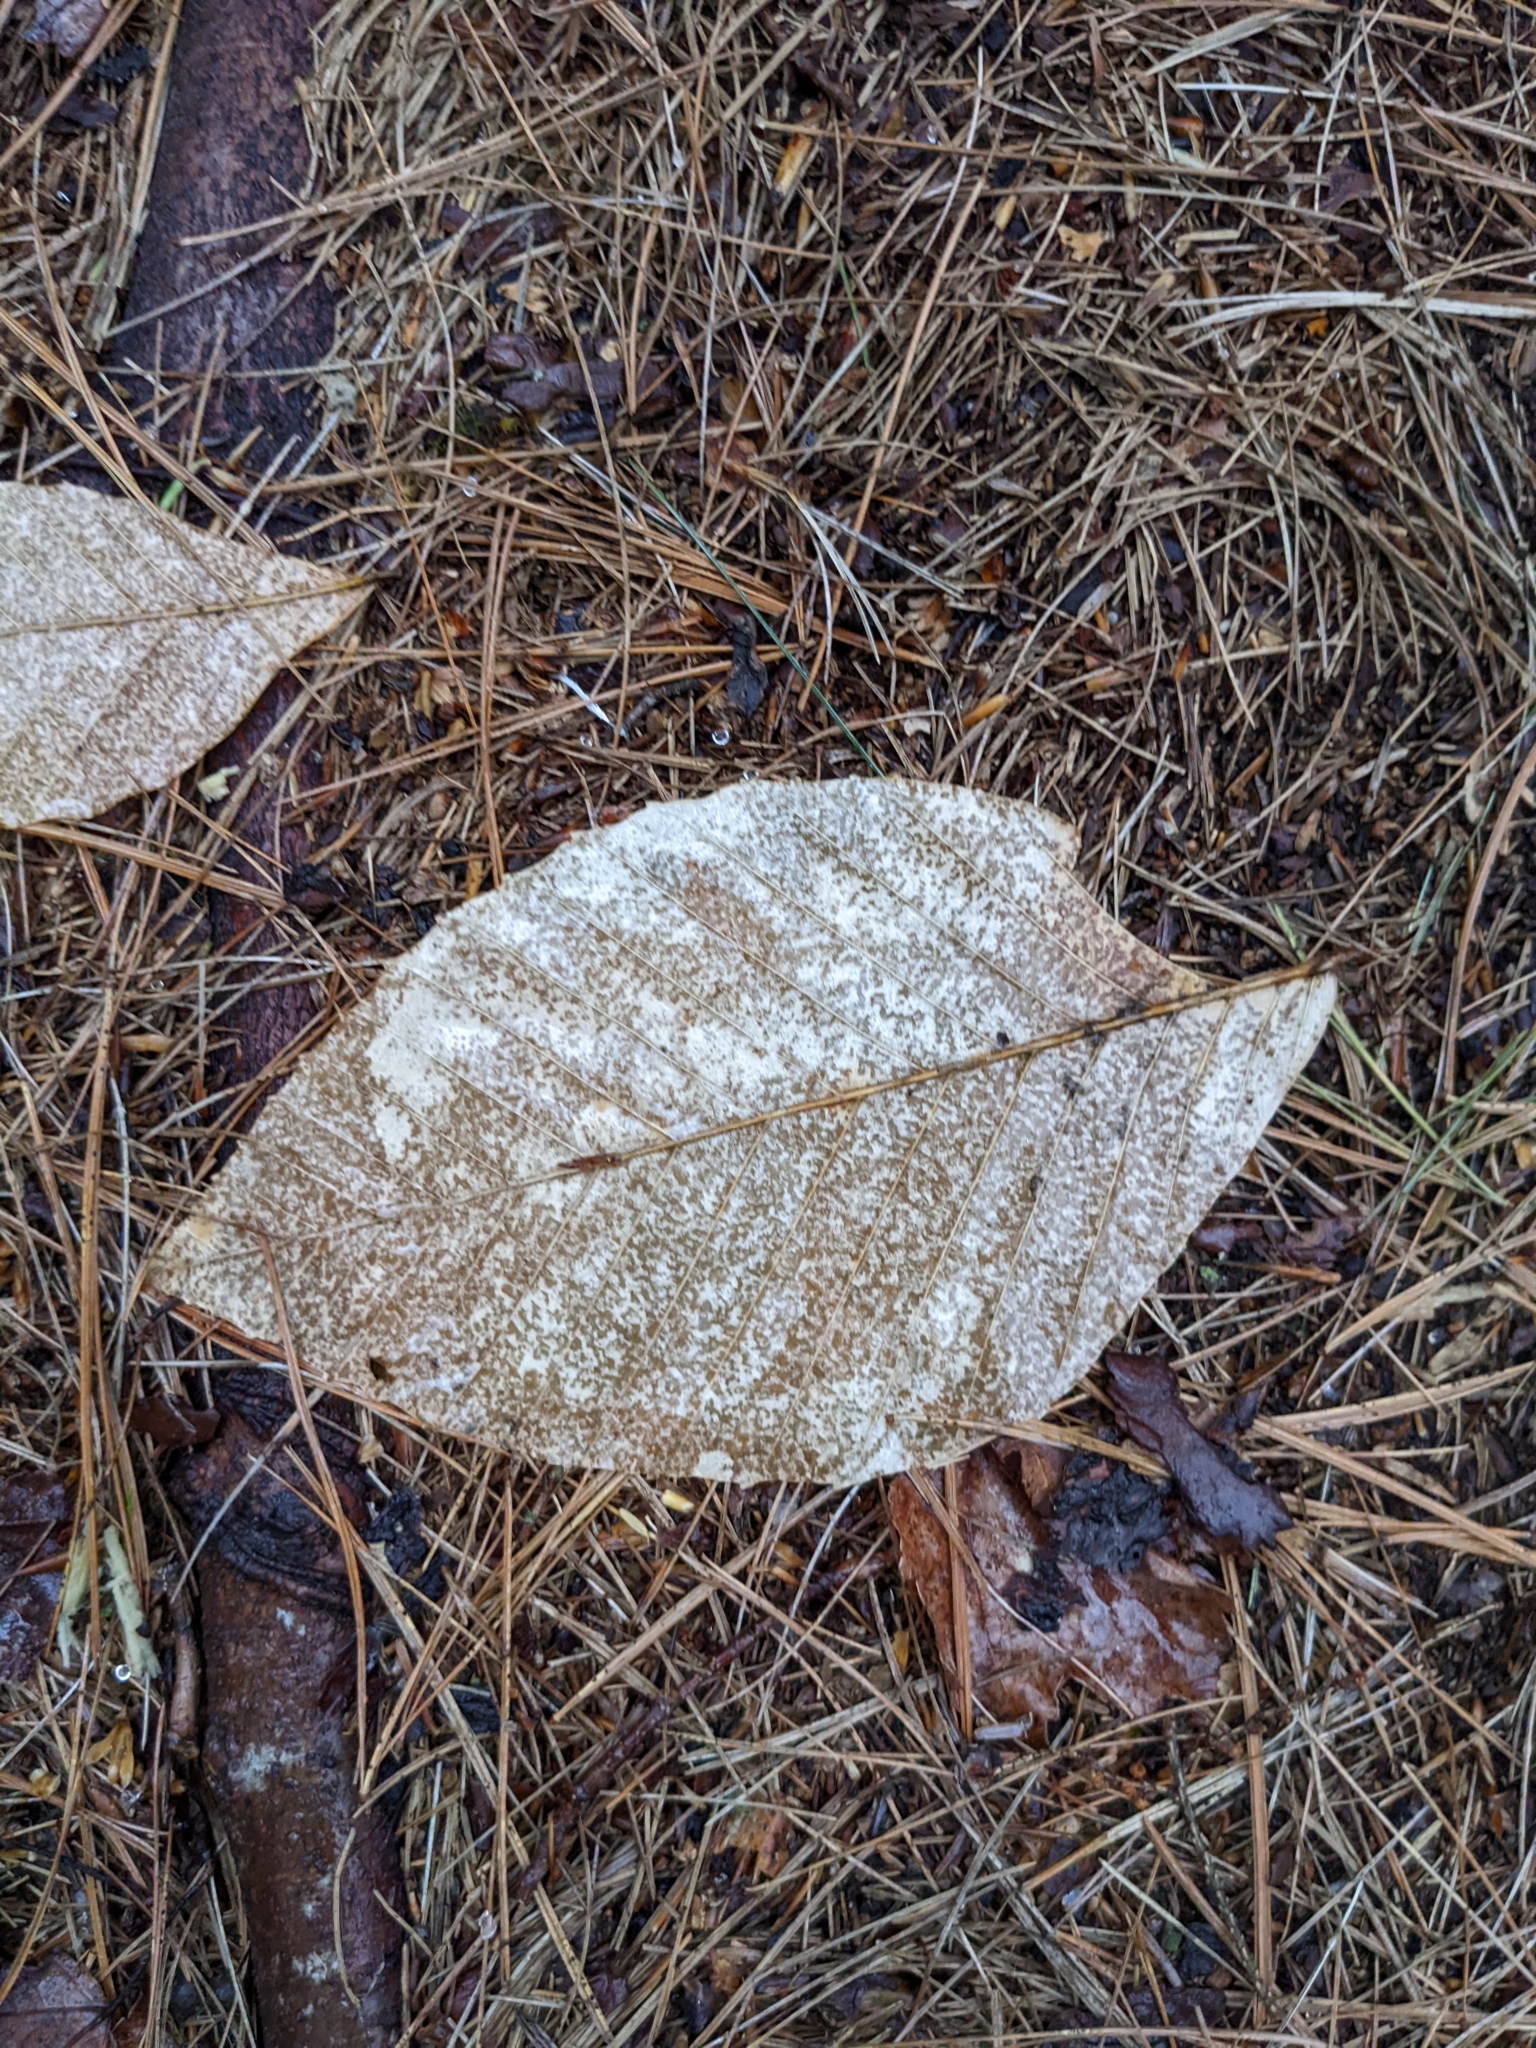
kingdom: Plantae
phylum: Tracheophyta
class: Magnoliopsida
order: Fagales
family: Fagaceae
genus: Fagus
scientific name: Fagus grandifolia
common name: American beech
